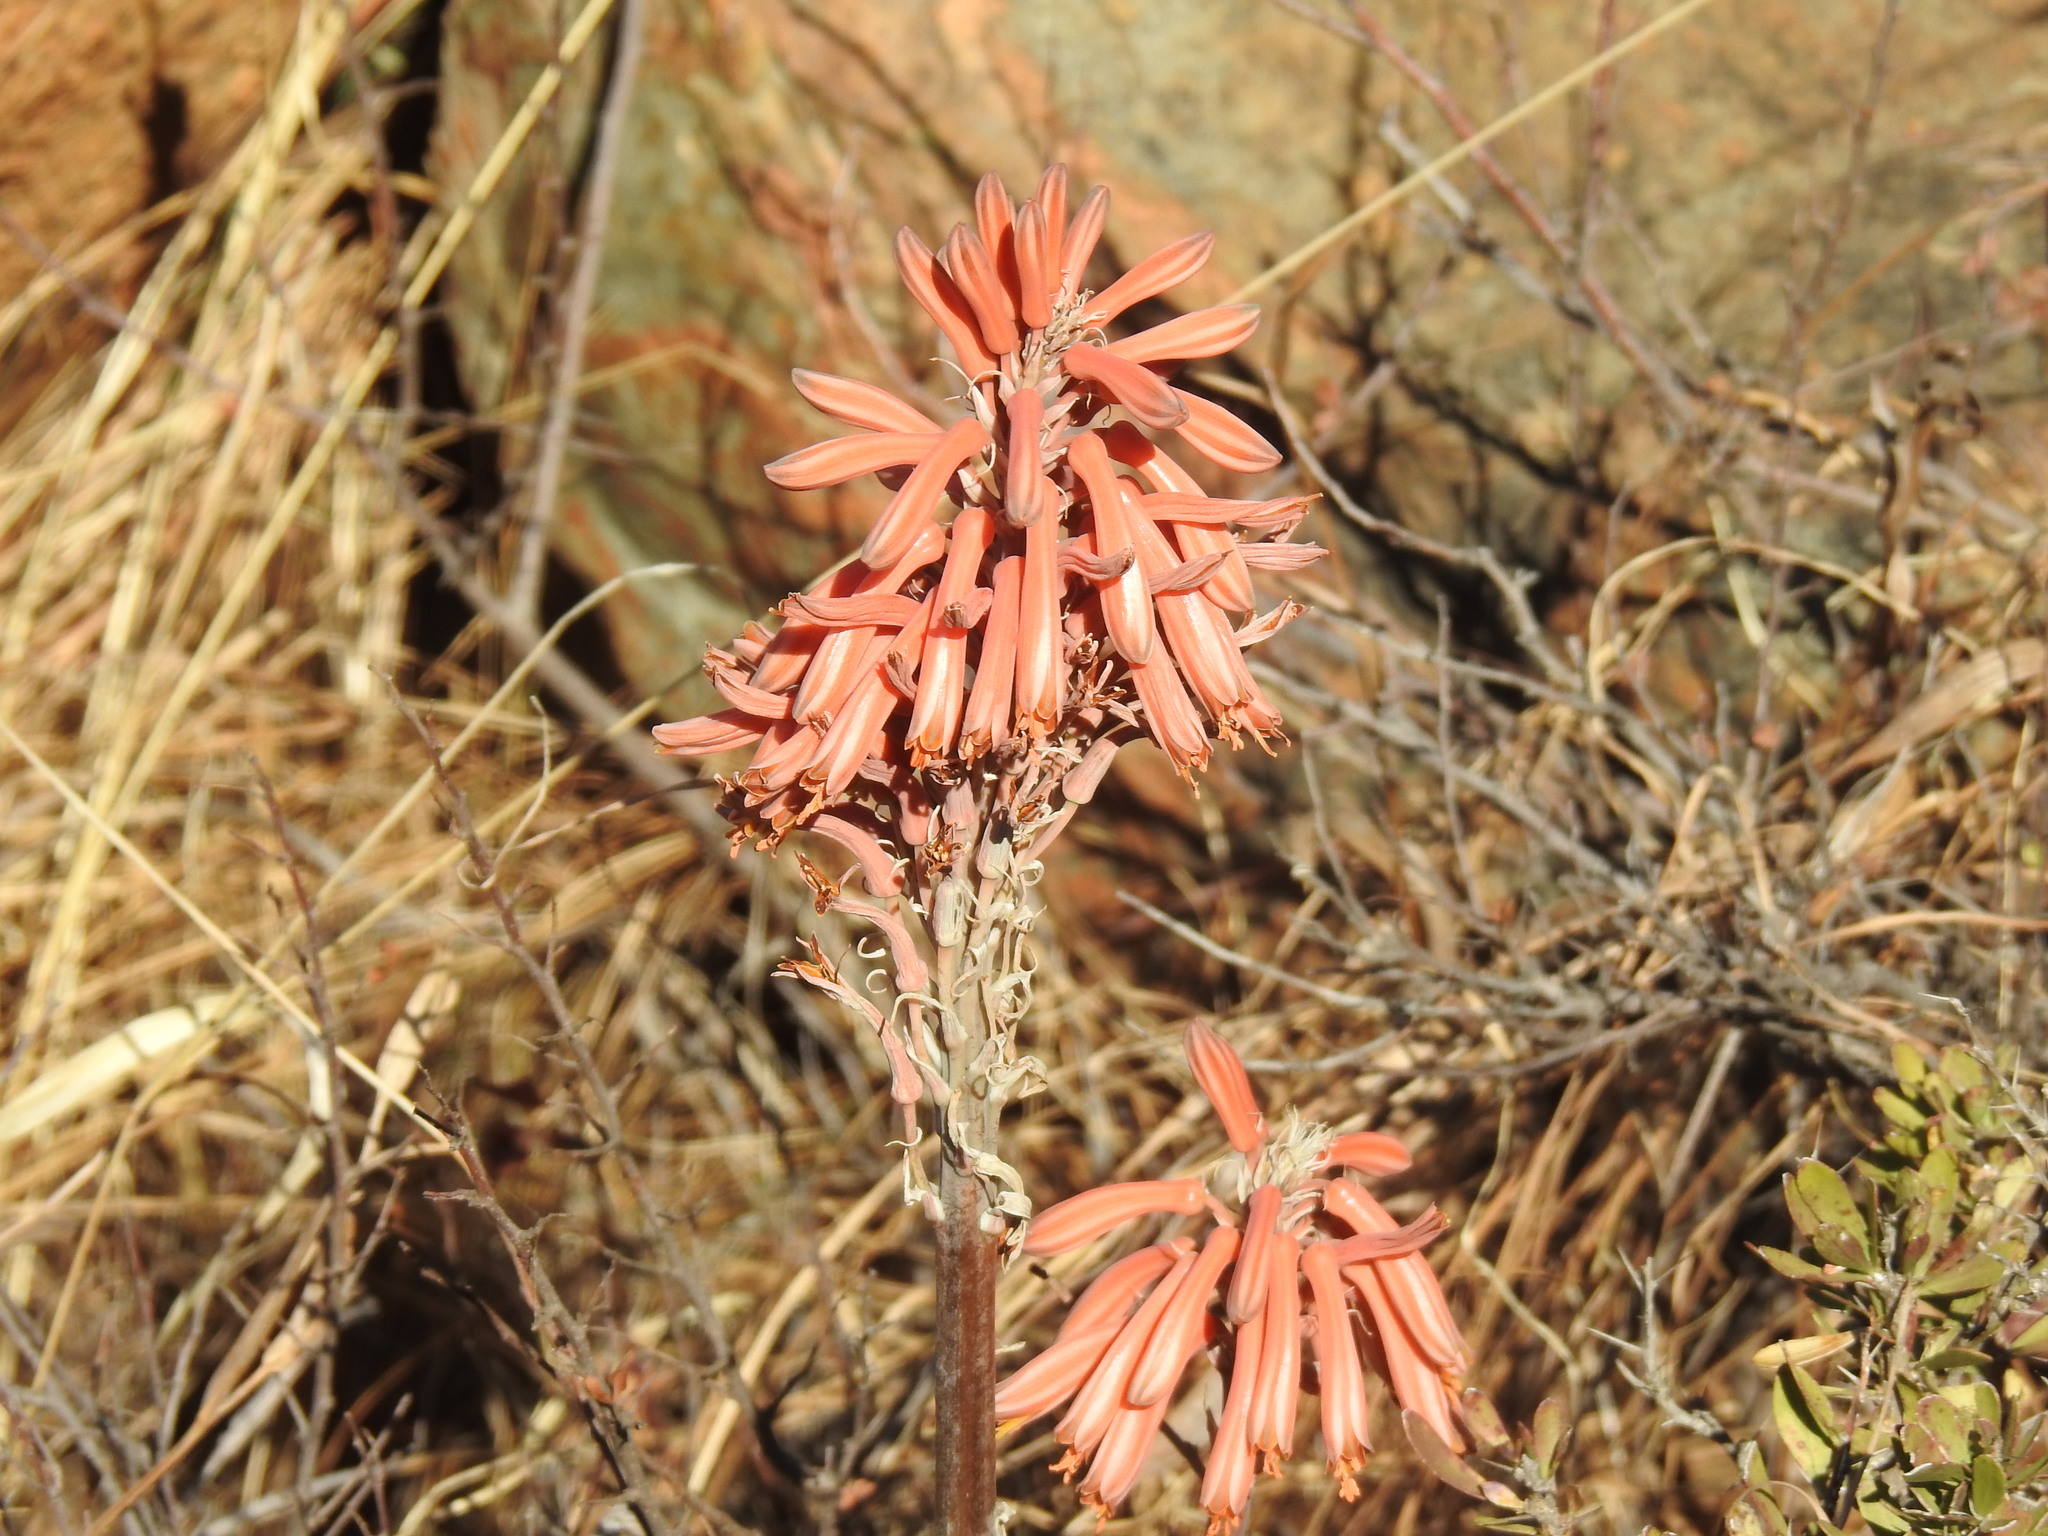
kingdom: Plantae
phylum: Tracheophyta
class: Liliopsida
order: Asparagales
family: Asphodelaceae
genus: Aloe
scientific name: Aloe davyana
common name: Spotted aloe
